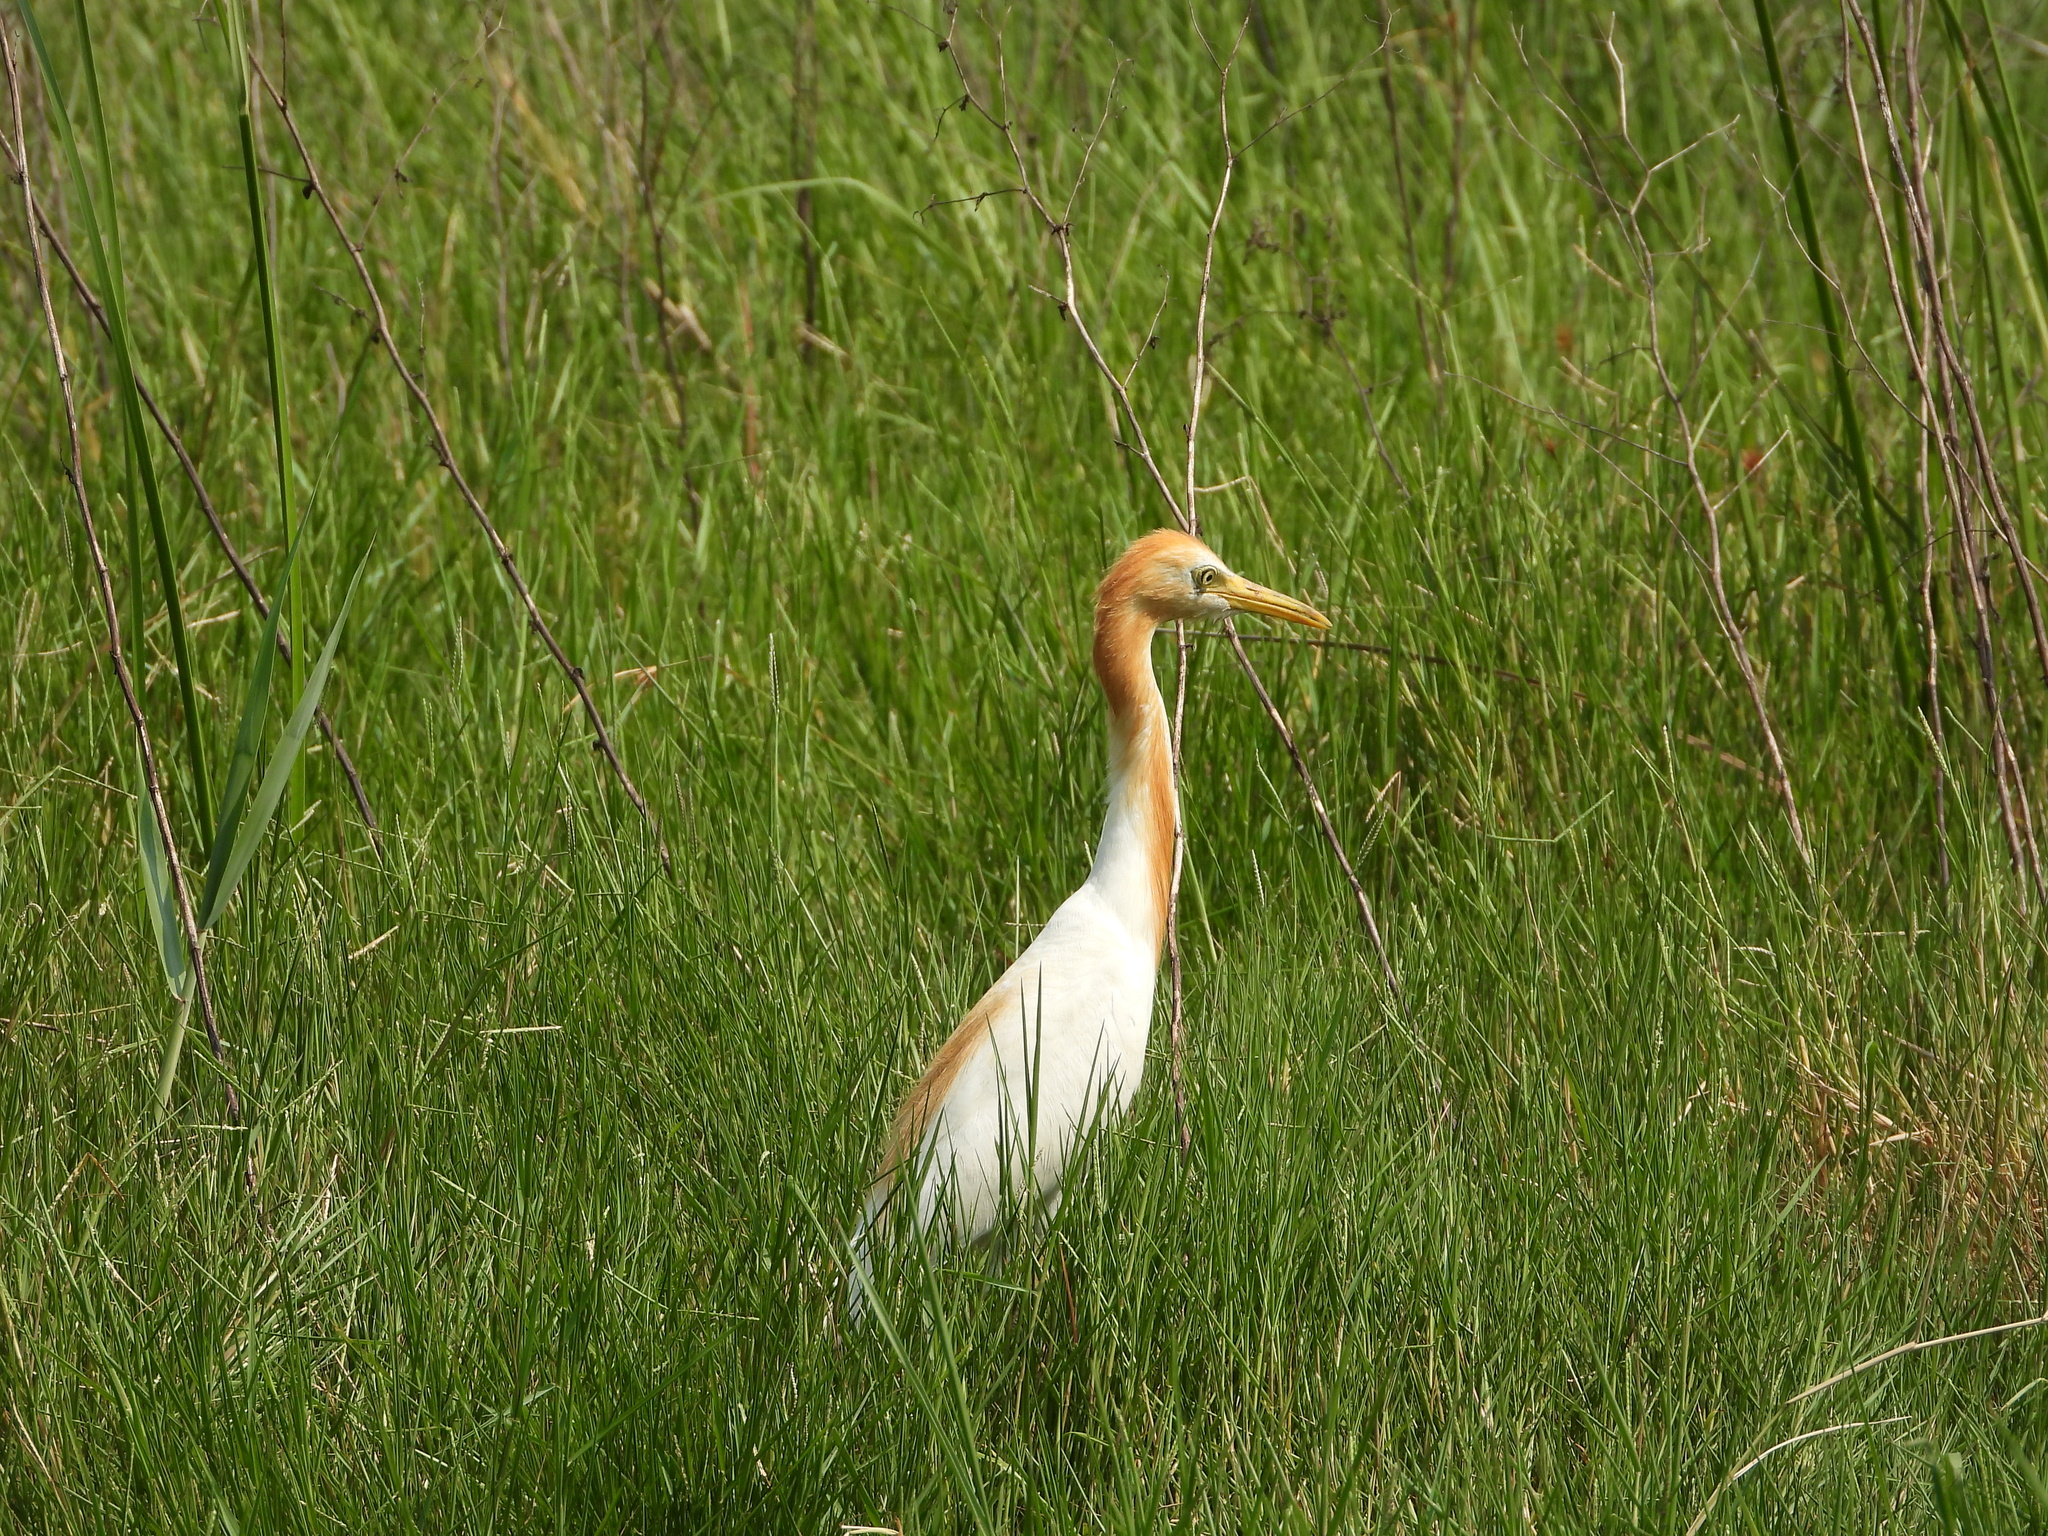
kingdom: Animalia
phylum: Chordata
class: Aves
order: Pelecaniformes
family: Ardeidae
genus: Bubulcus
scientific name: Bubulcus coromandus
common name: Eastern cattle egret
